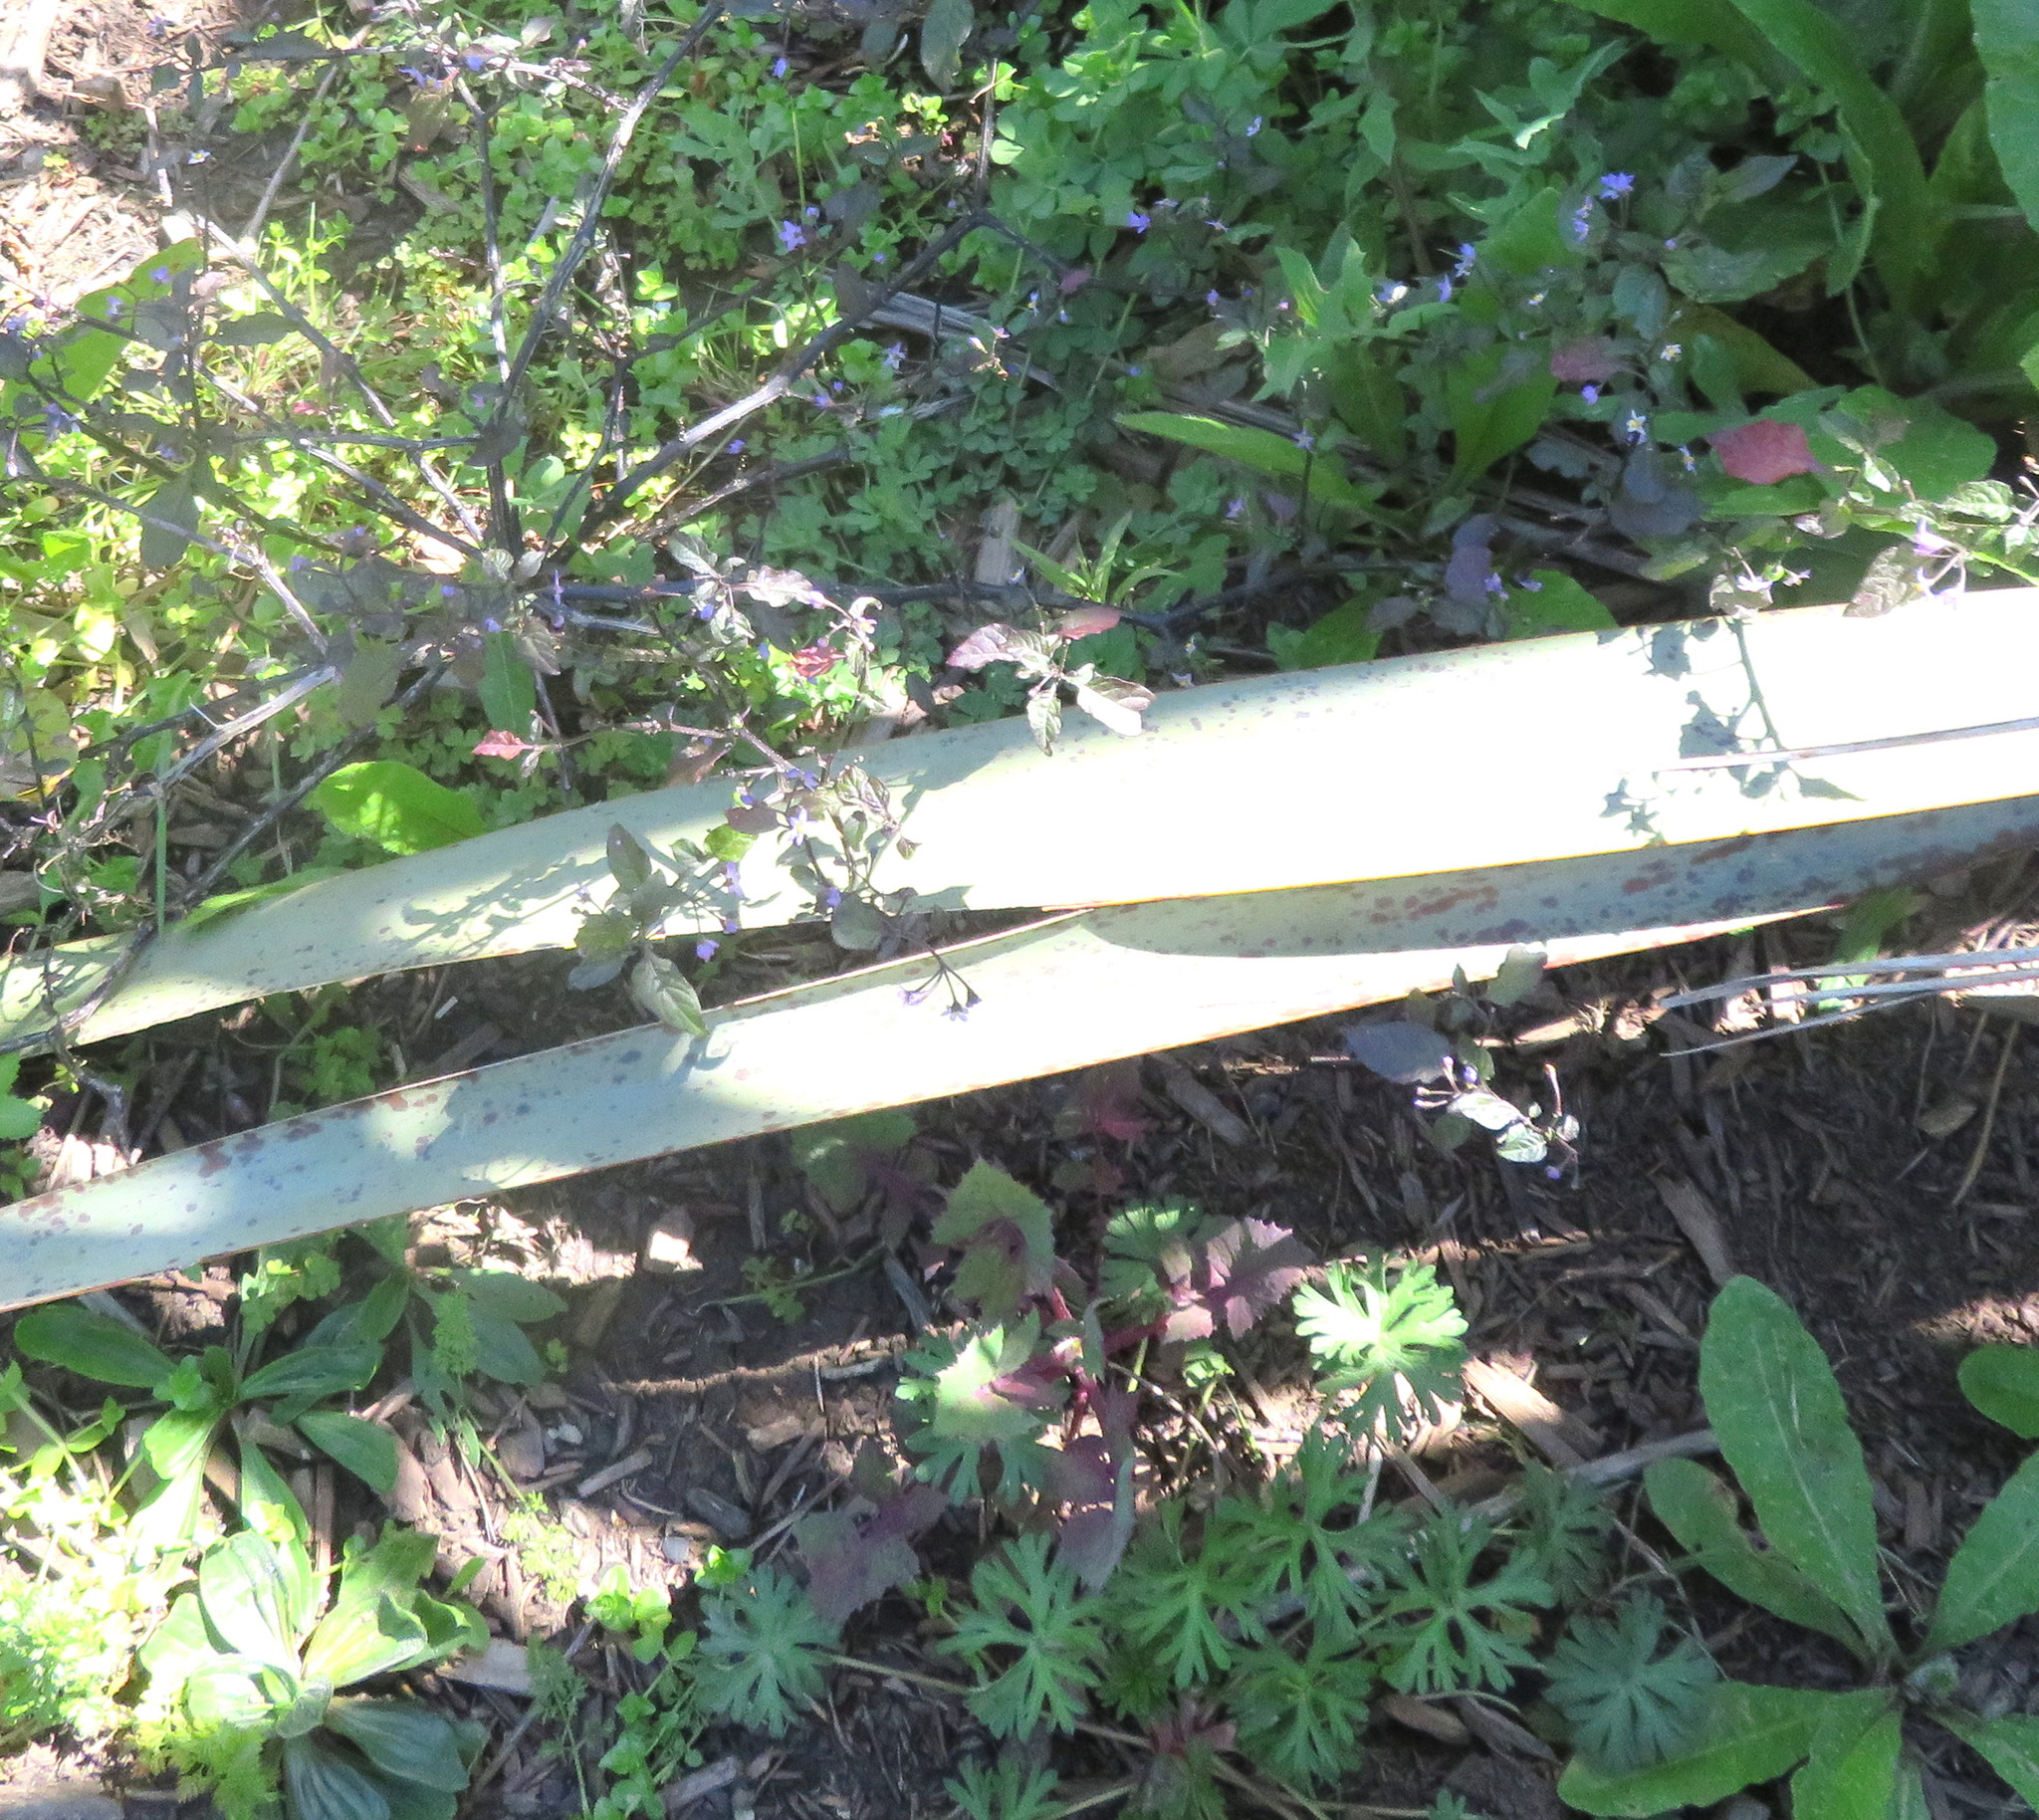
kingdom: Plantae
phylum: Tracheophyta
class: Magnoliopsida
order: Geraniales
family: Geraniaceae
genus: Geranium
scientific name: Geranium dissectum
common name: Cut-leaved crane's-bill
